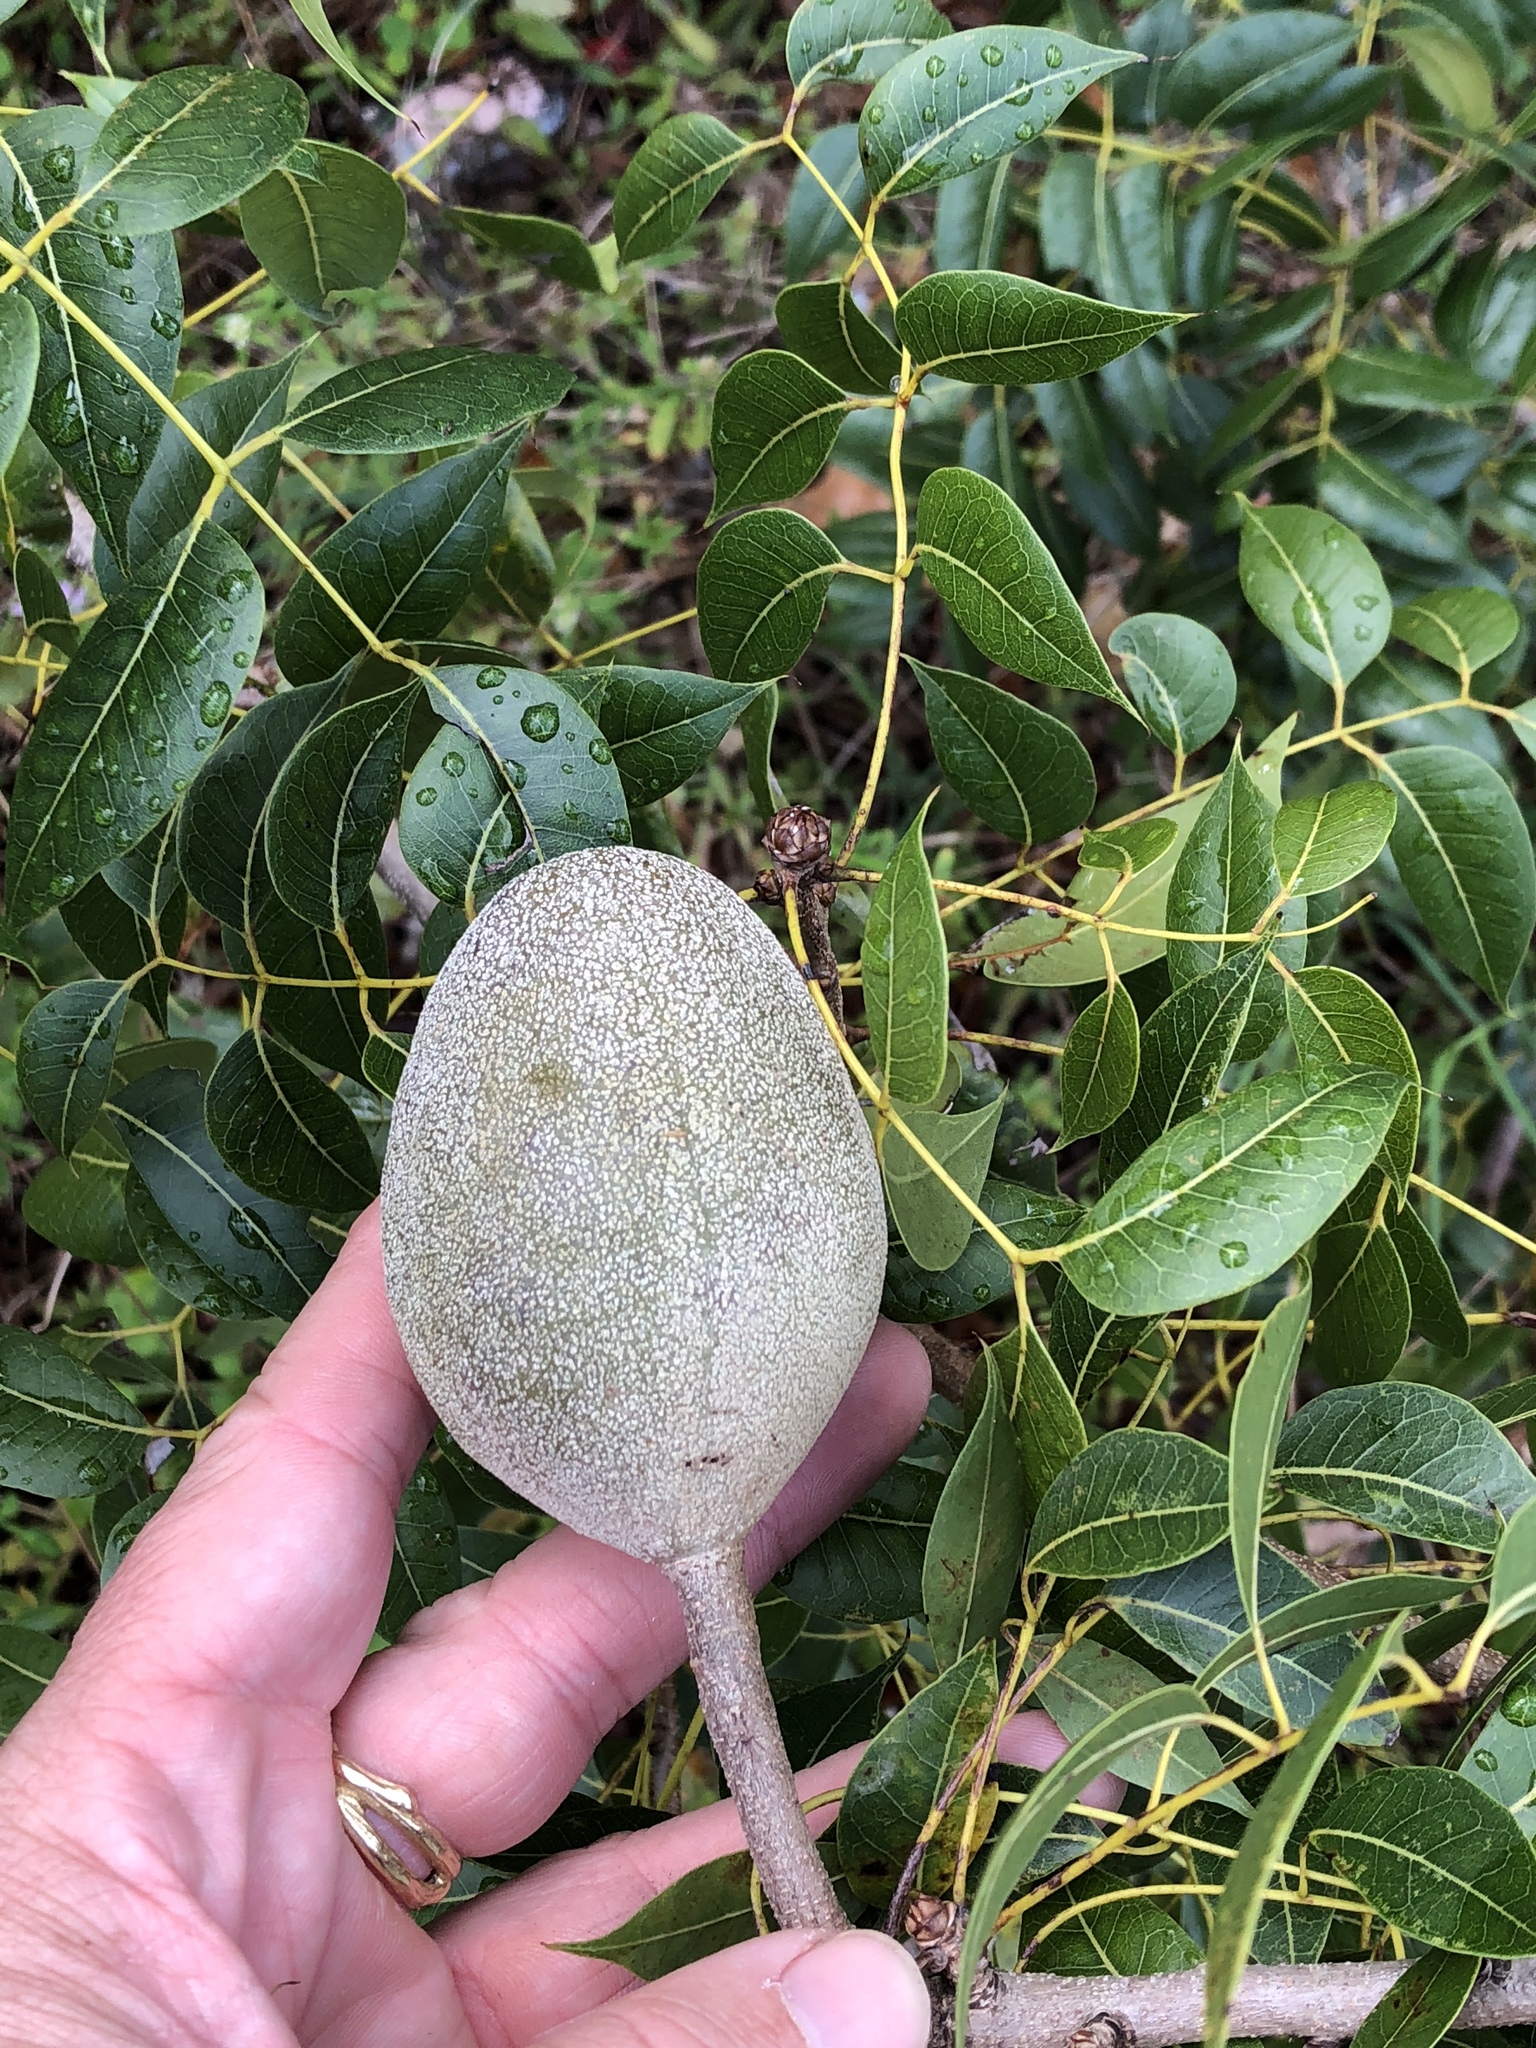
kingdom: Plantae
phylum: Tracheophyta
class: Magnoliopsida
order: Sapindales
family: Meliaceae
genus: Swietenia
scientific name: Swietenia mahagoni
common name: West indian mahogany
